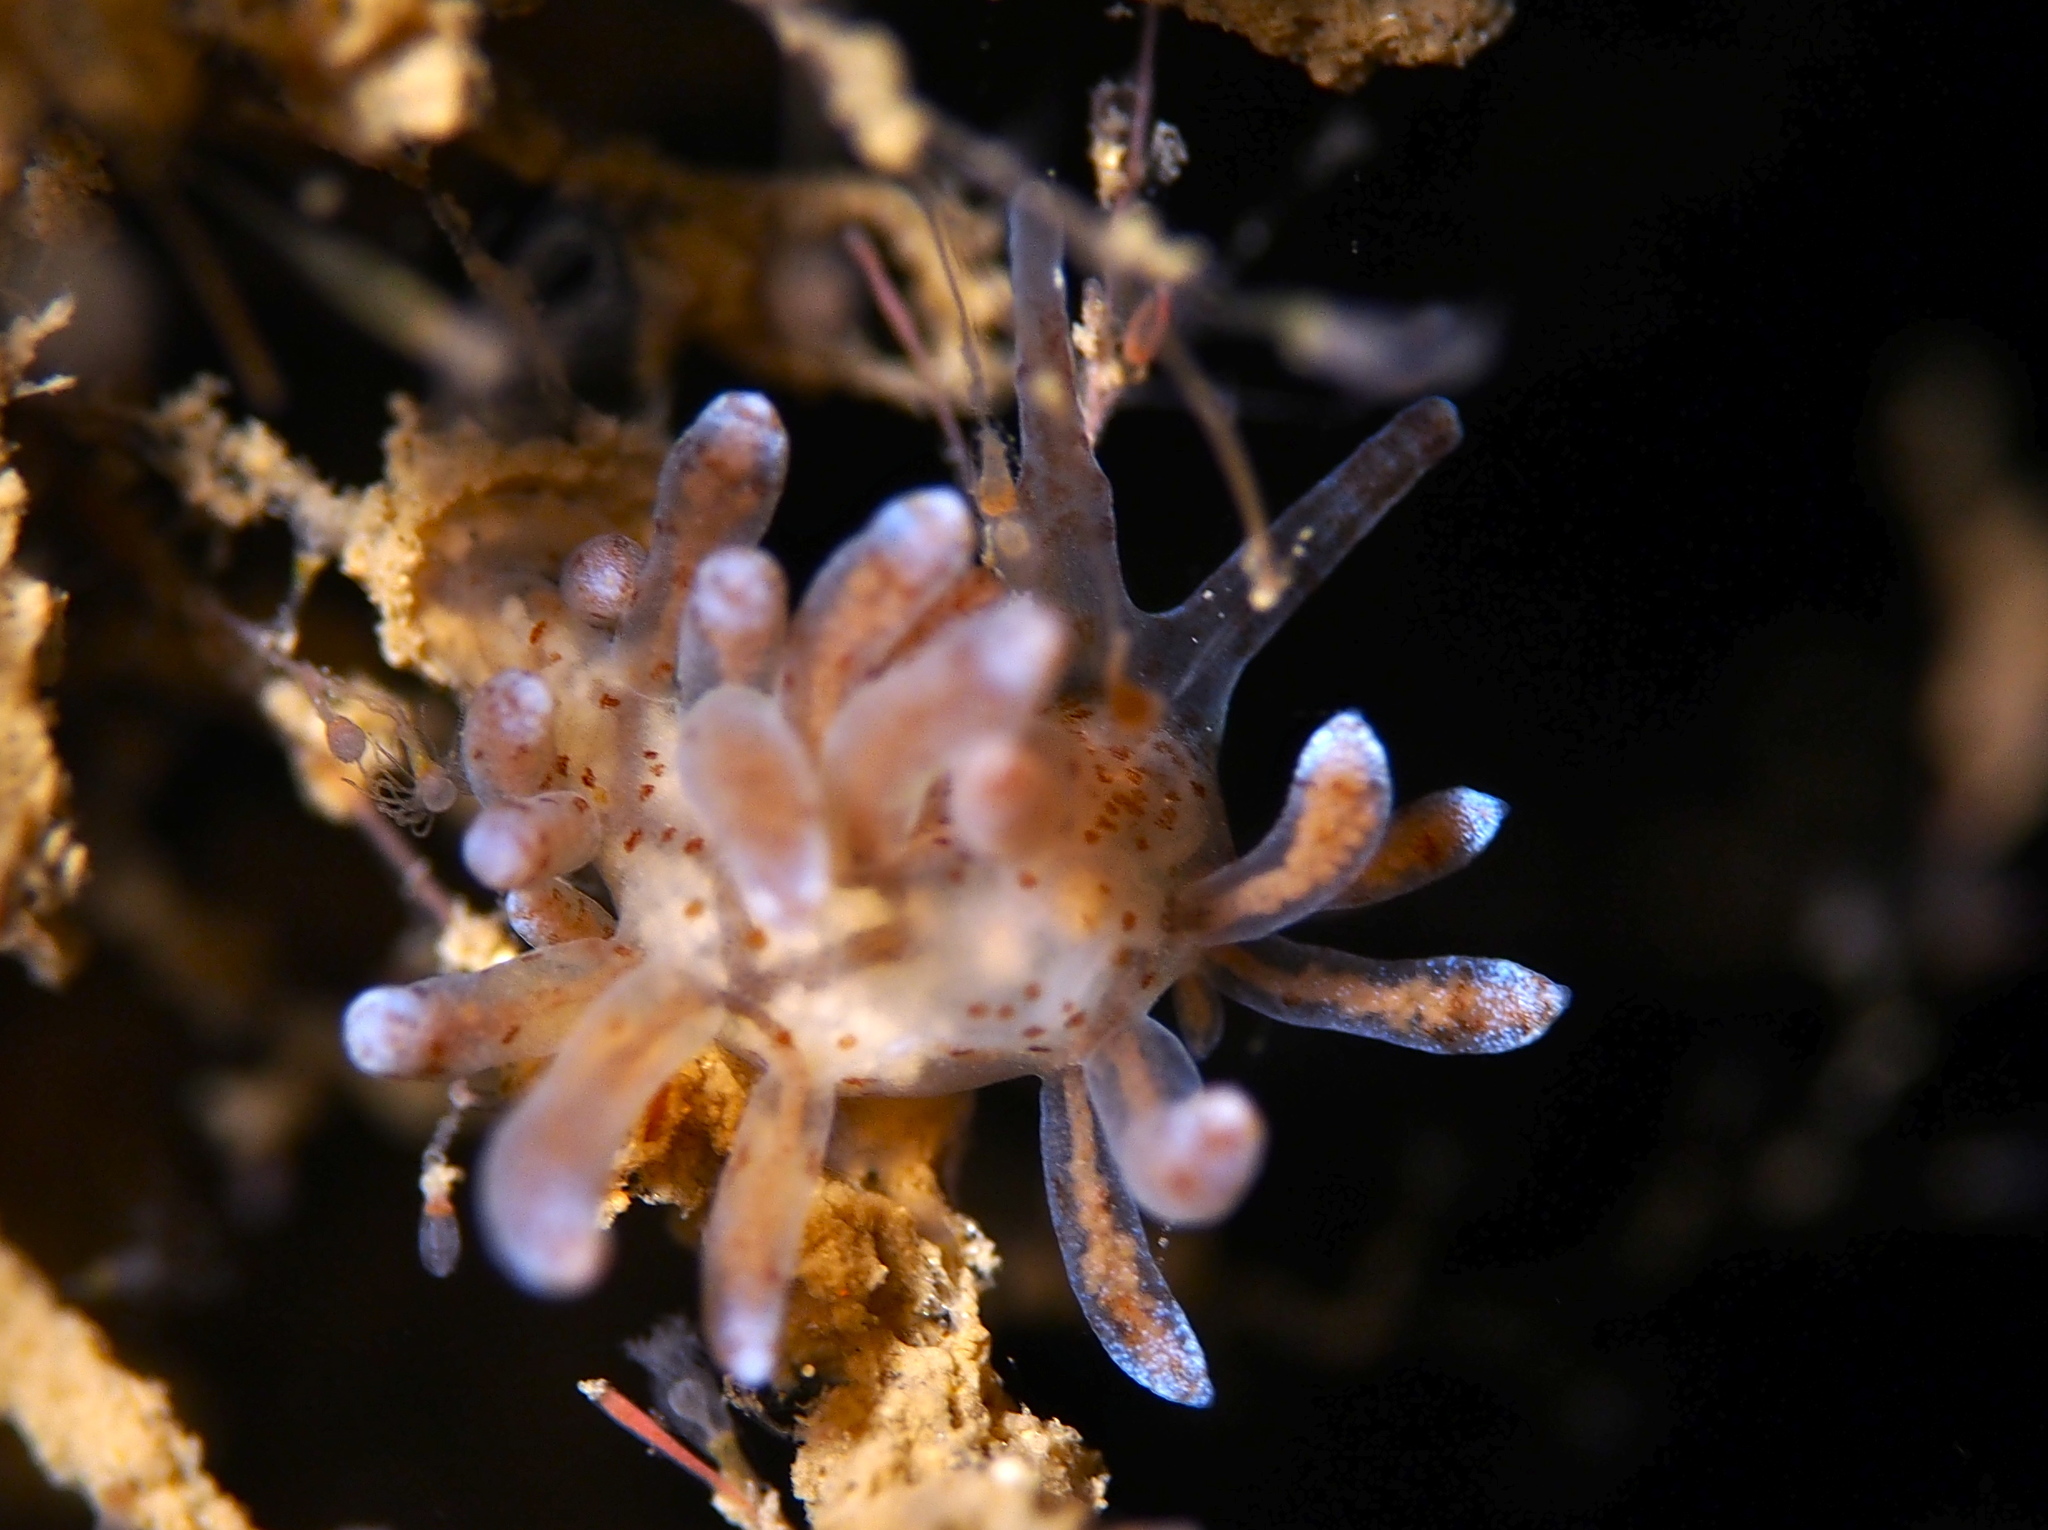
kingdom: Animalia
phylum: Mollusca
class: Gastropoda
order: Nudibranchia
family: Eubranchidae
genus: Eubranchus
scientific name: Eubranchus rupium
